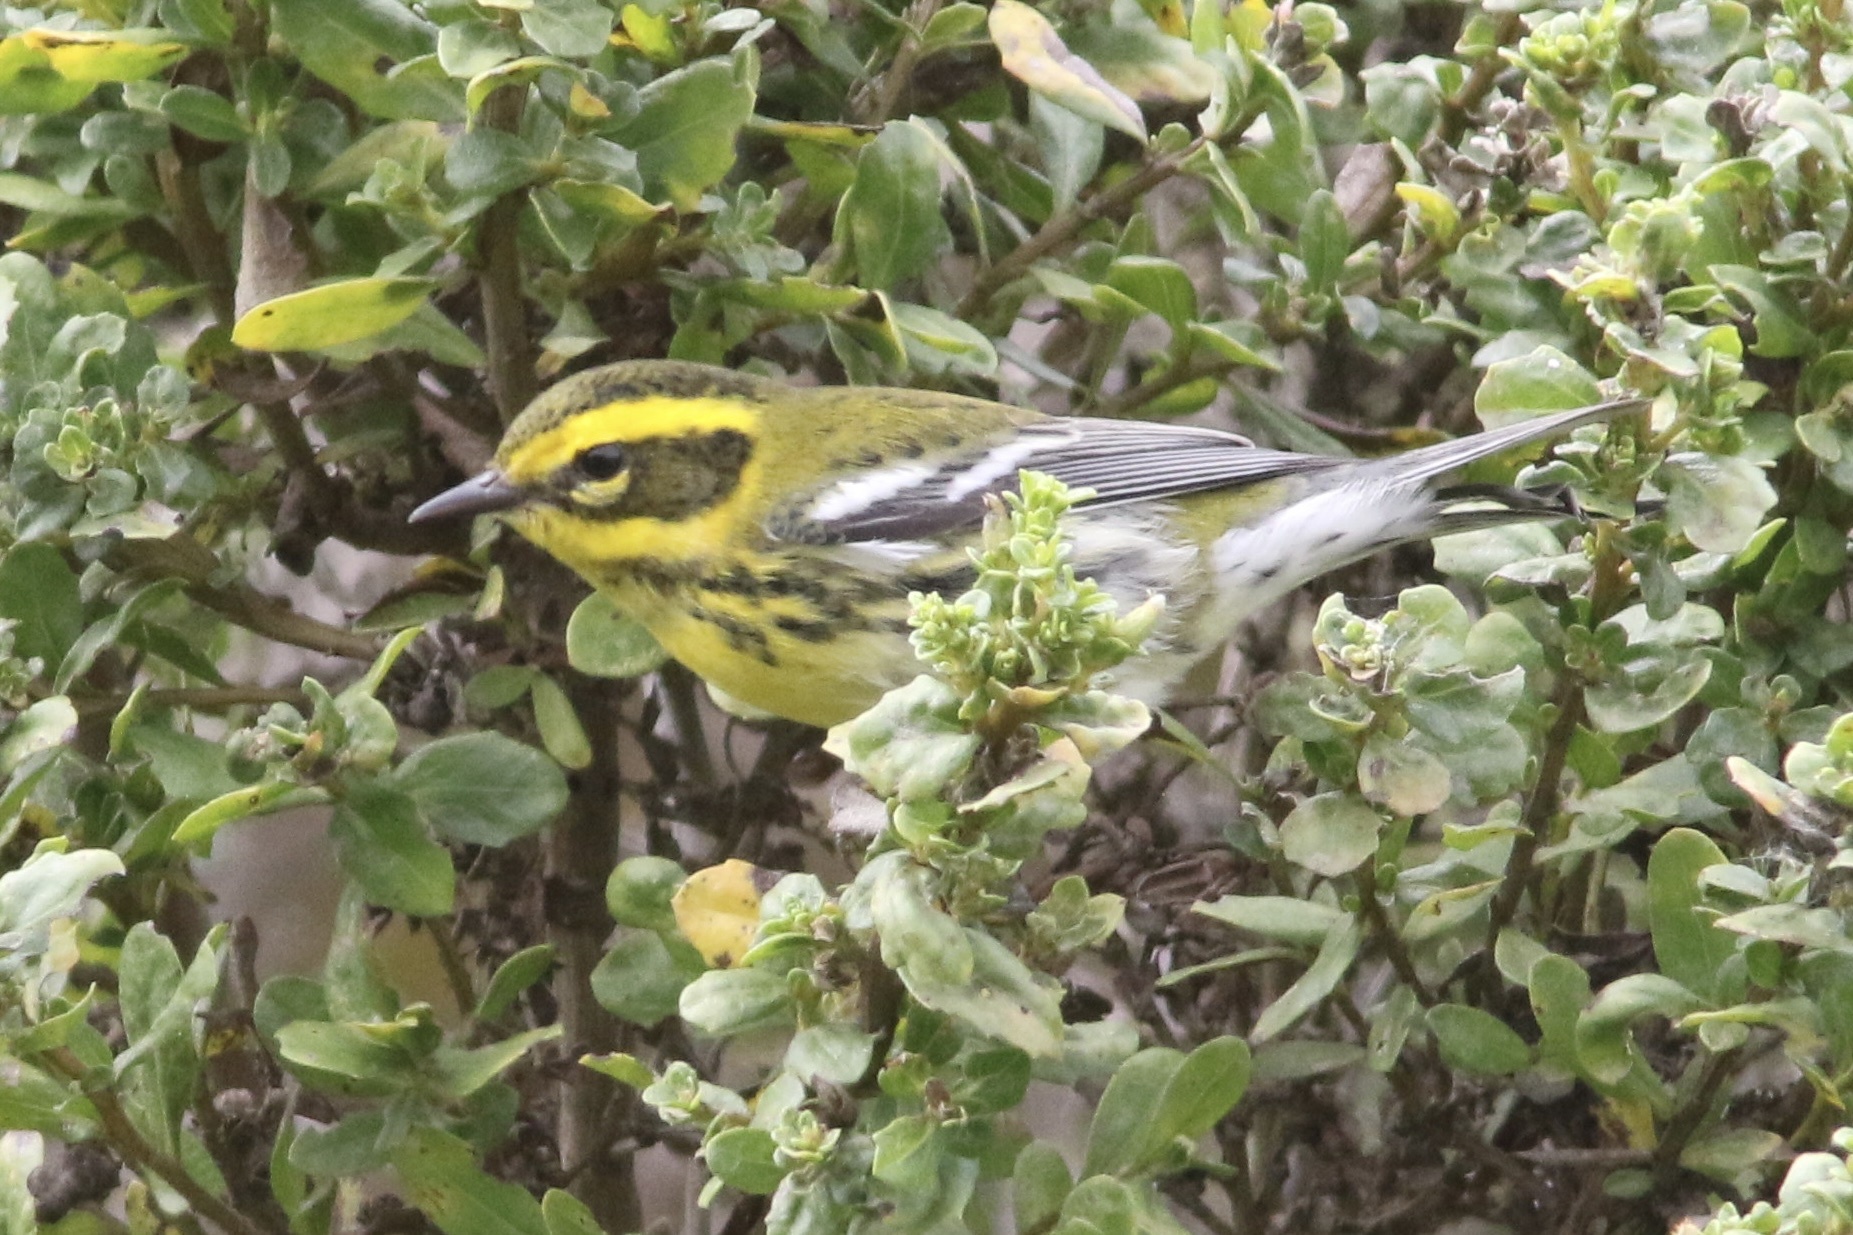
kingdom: Animalia
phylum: Chordata
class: Aves
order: Passeriformes
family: Parulidae
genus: Setophaga
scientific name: Setophaga townsendi
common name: Townsend's warbler
